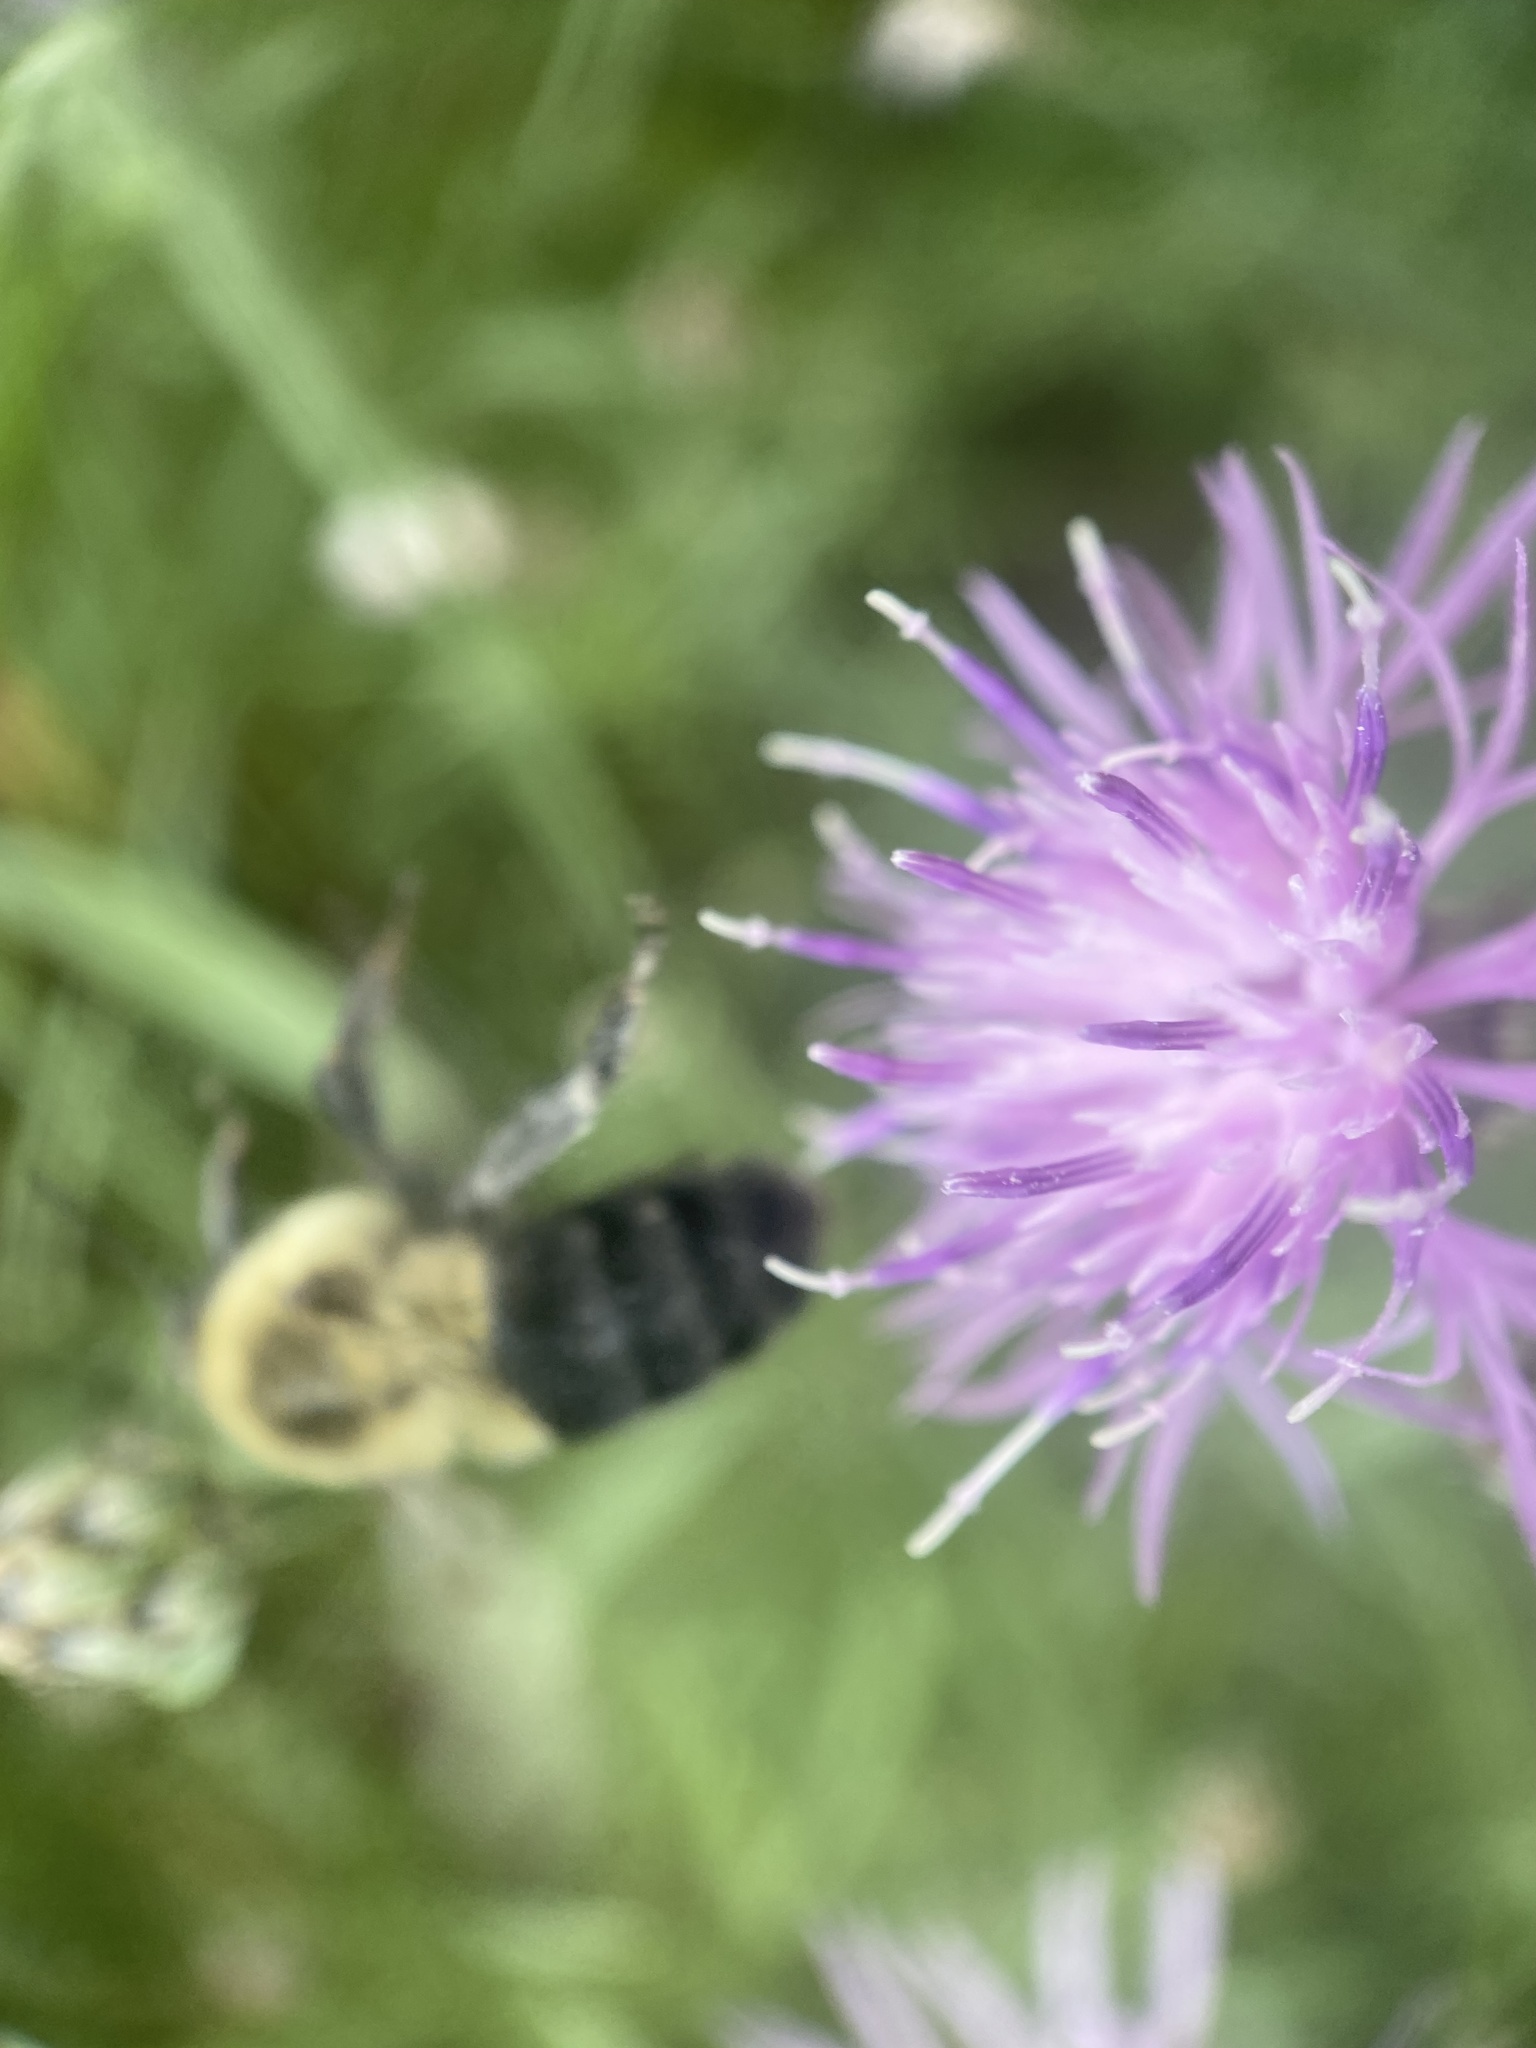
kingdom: Animalia
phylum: Arthropoda
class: Insecta
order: Hymenoptera
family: Apidae
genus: Bombus
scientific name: Bombus impatiens
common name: Common eastern bumble bee
